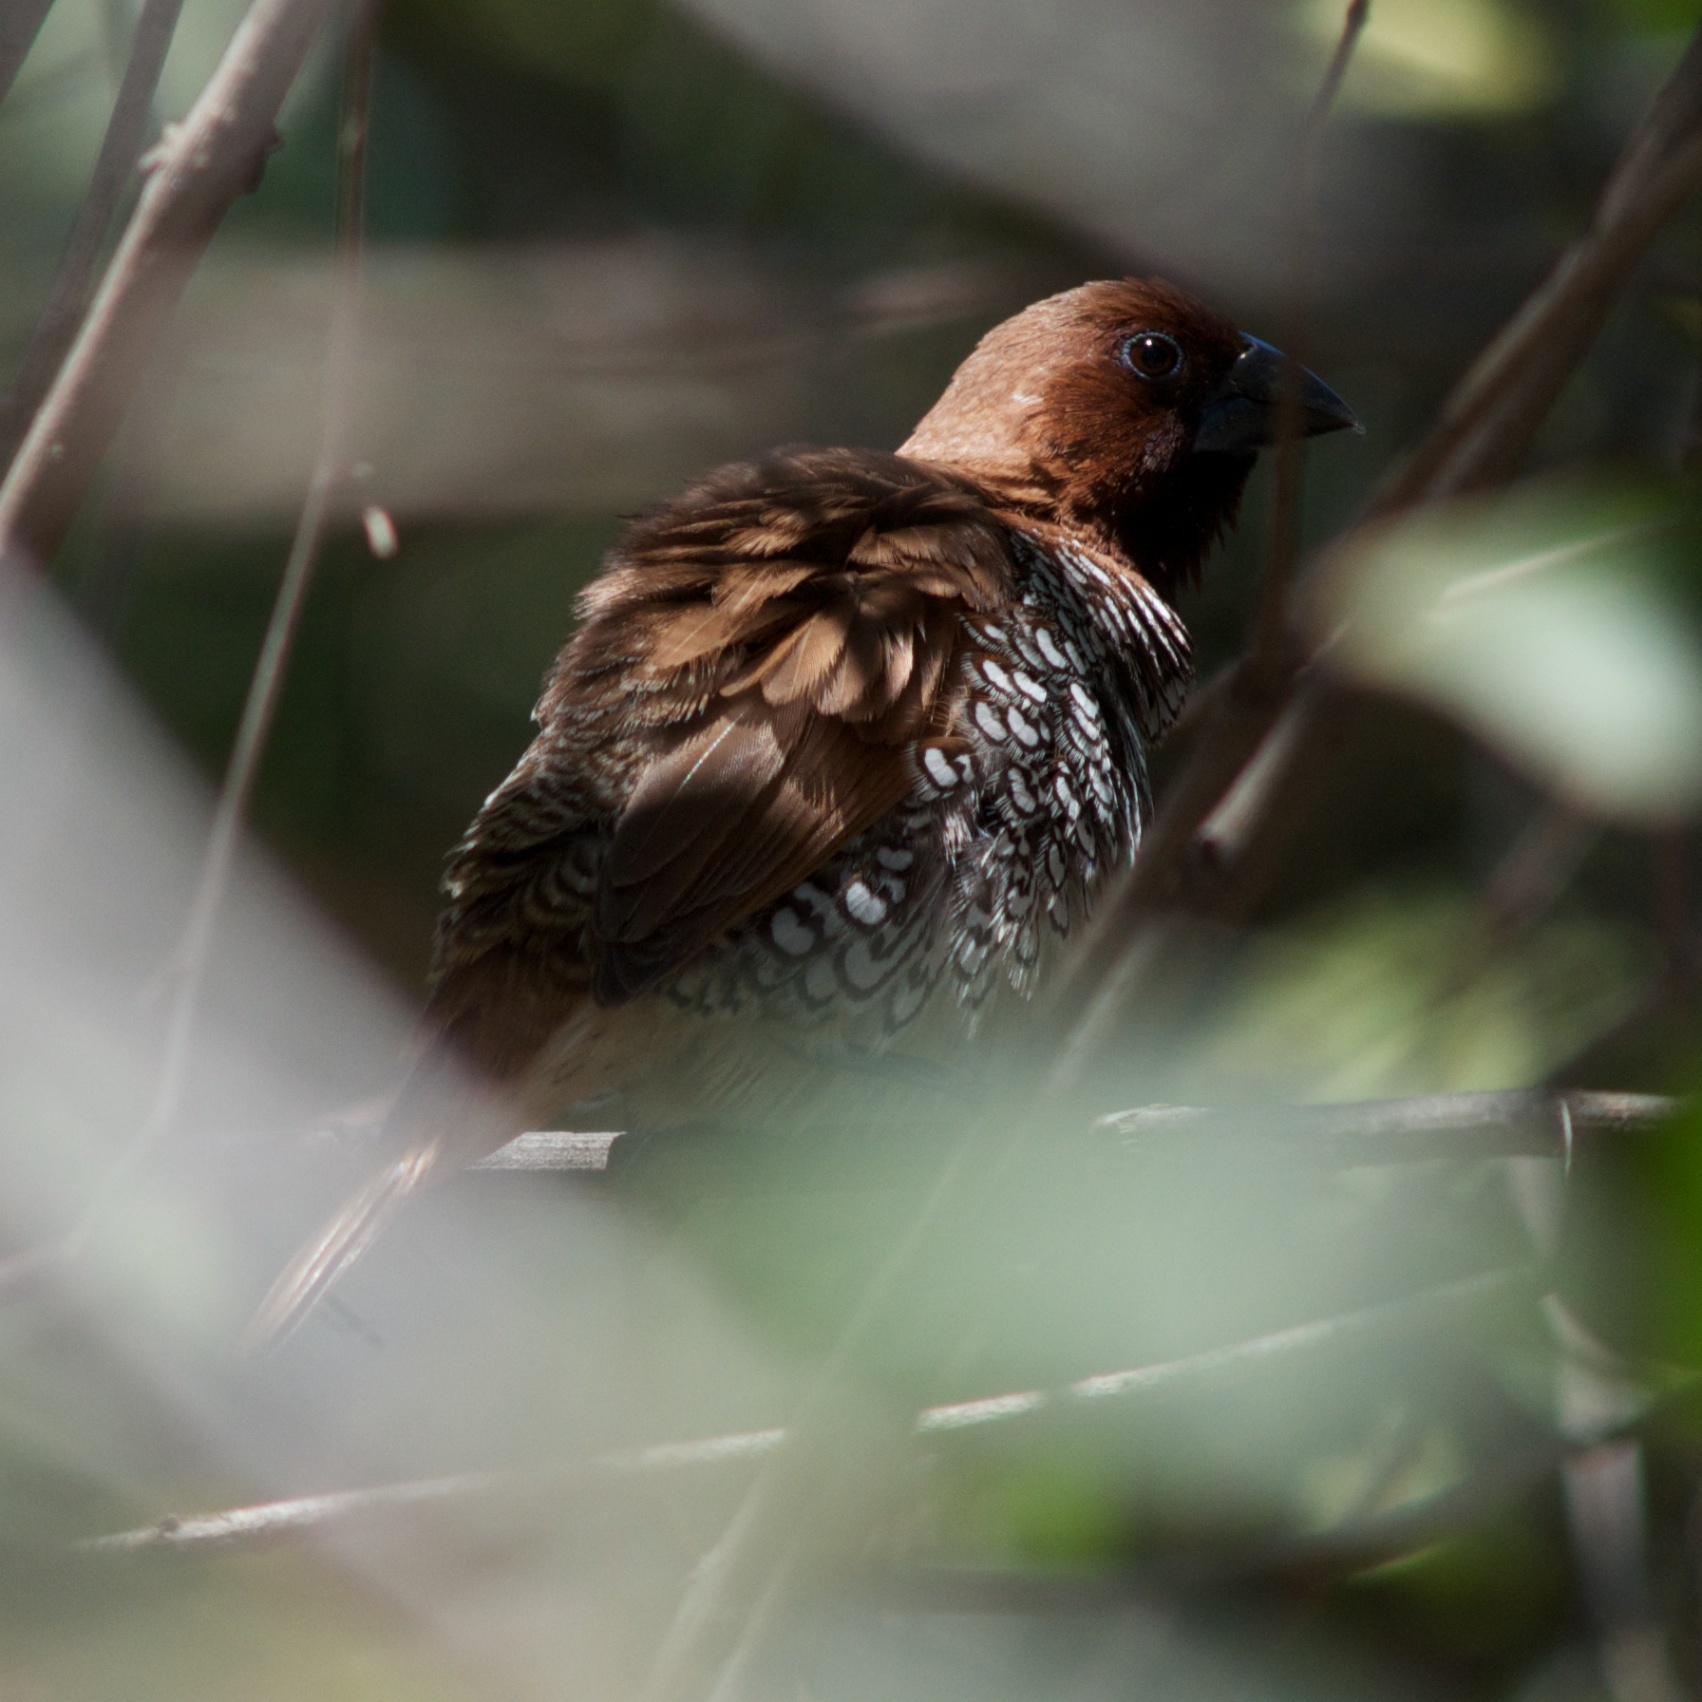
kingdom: Animalia
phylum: Chordata
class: Aves
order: Passeriformes
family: Estrildidae
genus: Lonchura
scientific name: Lonchura punctulata
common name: Scaly-breasted munia
